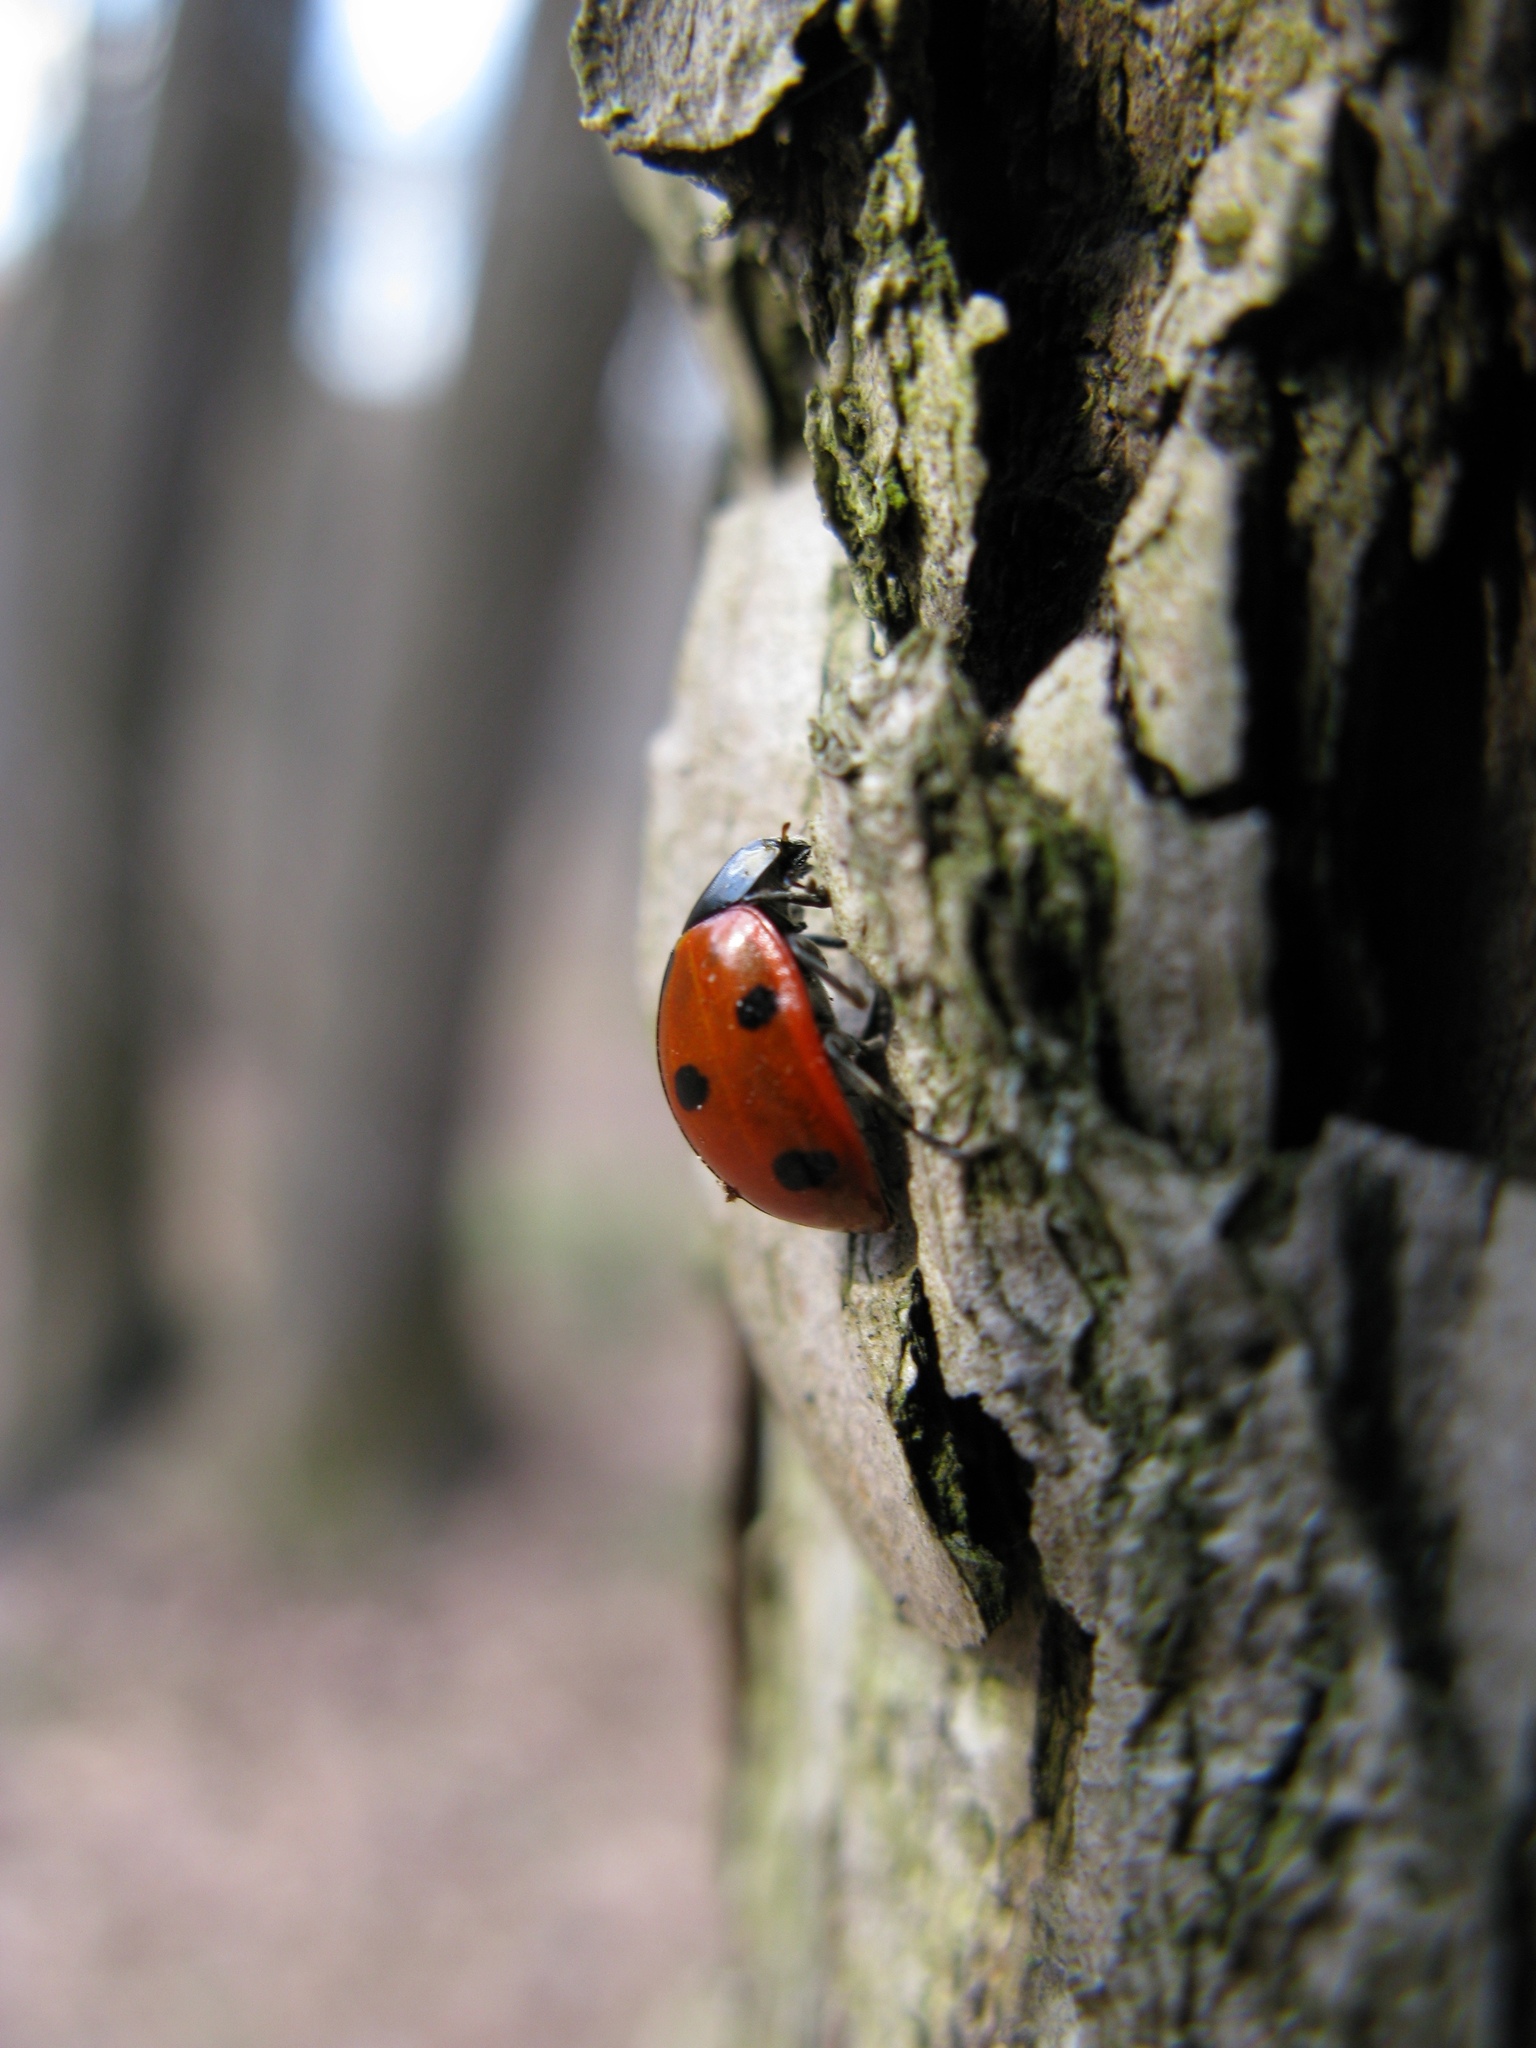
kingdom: Animalia
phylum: Arthropoda
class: Insecta
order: Coleoptera
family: Coccinellidae
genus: Coccinella
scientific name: Coccinella septempunctata
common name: Sevenspotted lady beetle
